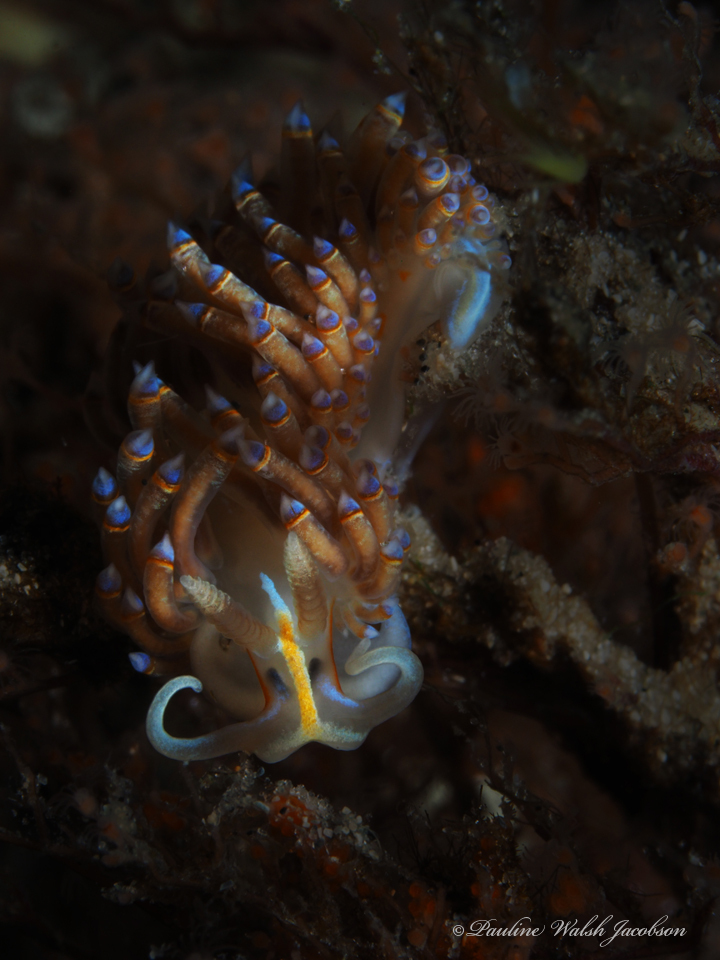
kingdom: Animalia
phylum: Mollusca
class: Gastropoda
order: Nudibranchia
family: Myrrhinidae
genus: Dondice
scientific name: Dondice jupiteriensis
